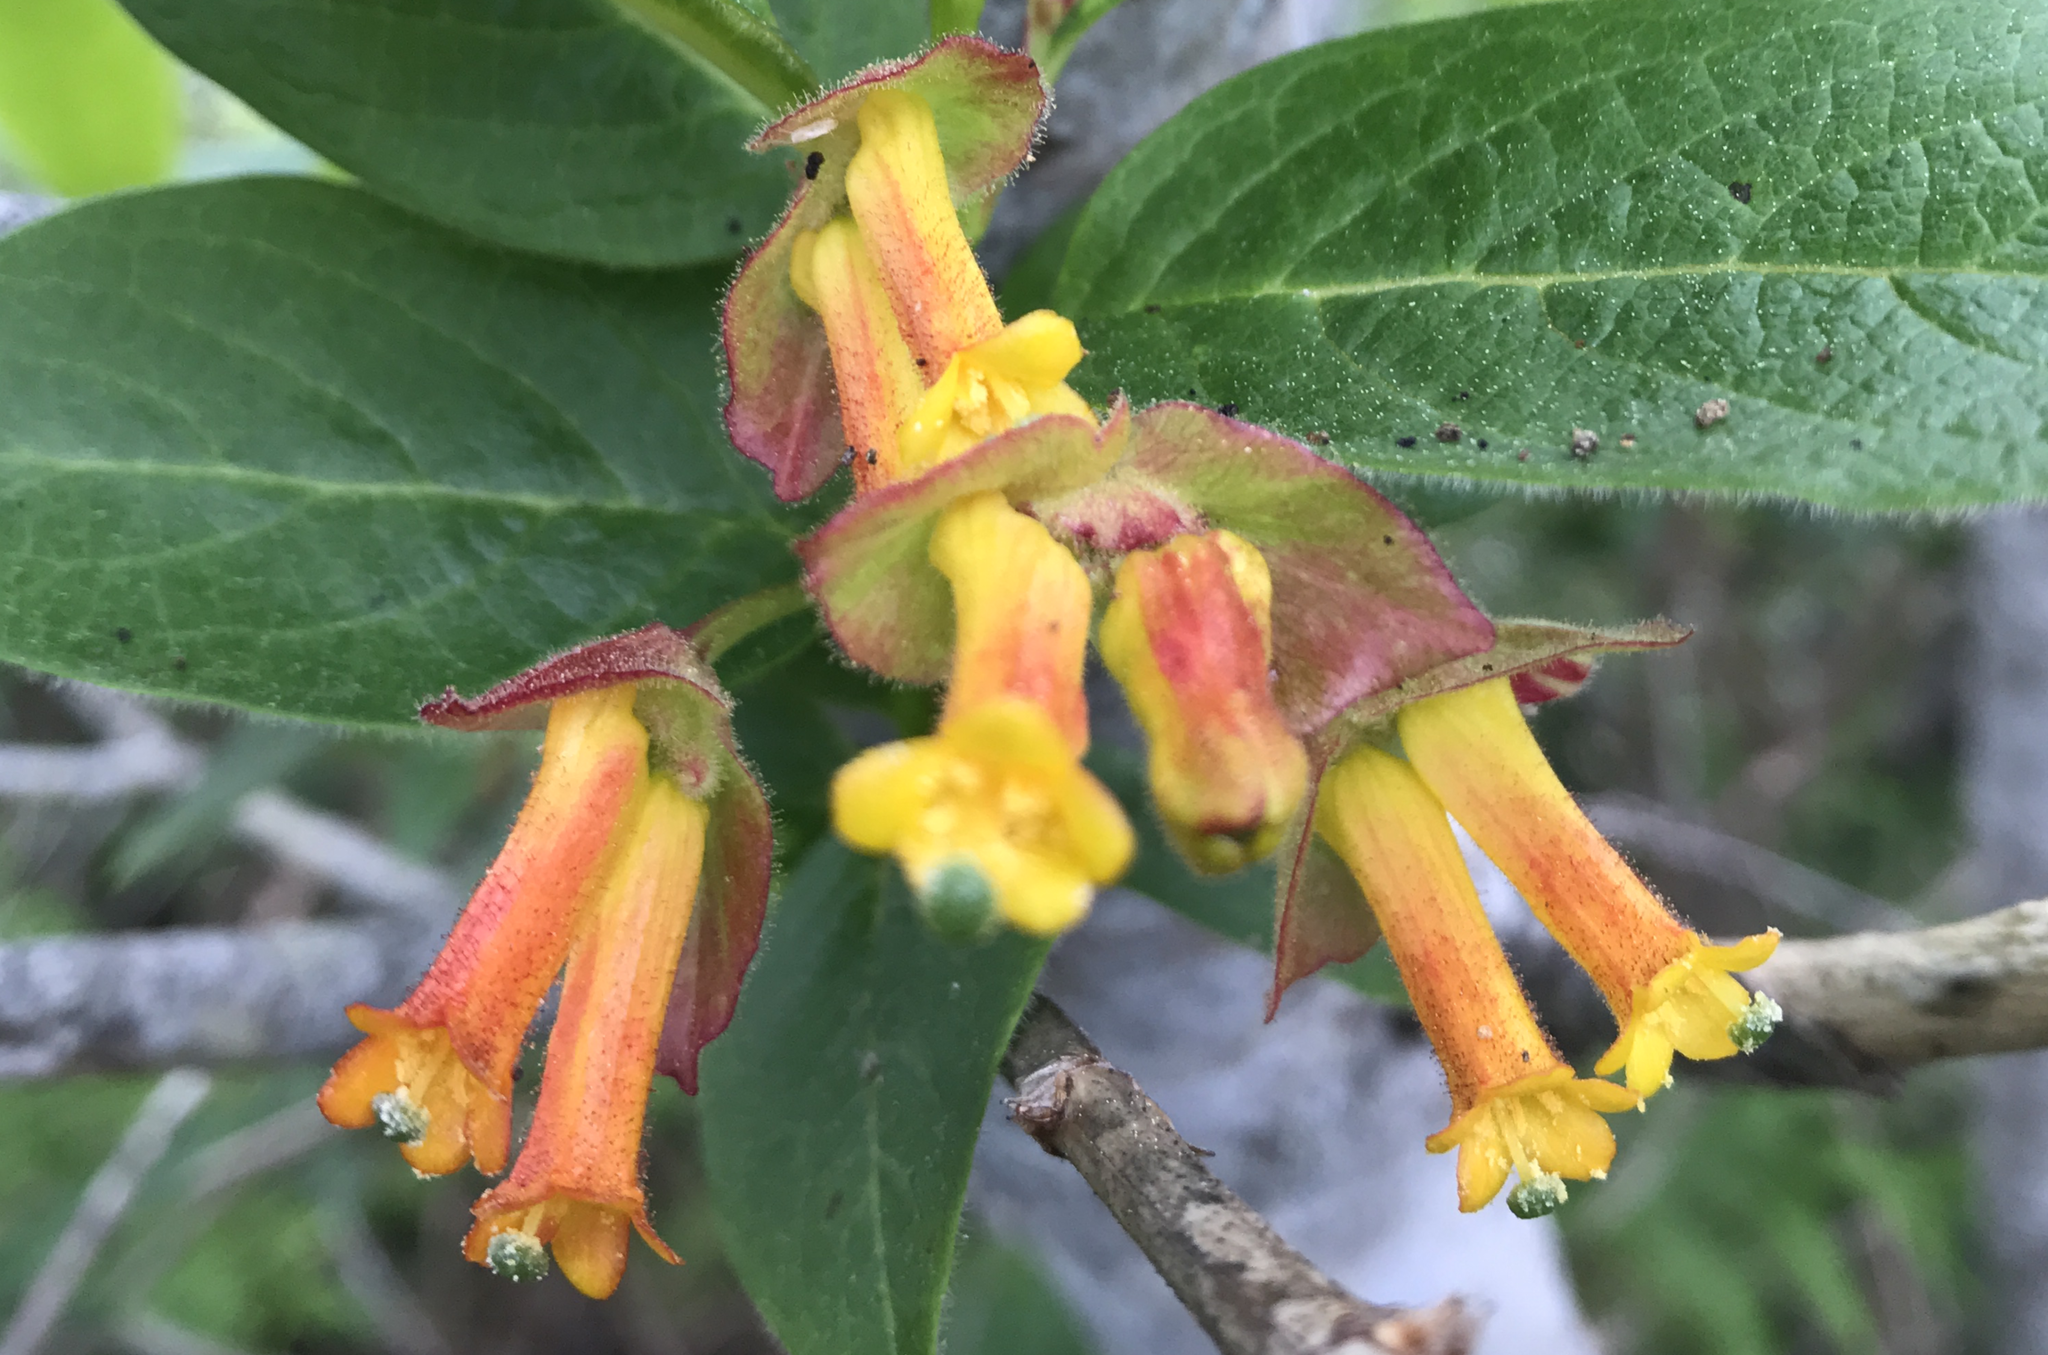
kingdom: Plantae
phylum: Tracheophyta
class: Magnoliopsida
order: Dipsacales
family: Caprifoliaceae
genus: Lonicera
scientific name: Lonicera involucrata
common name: Californian honeysuckle
